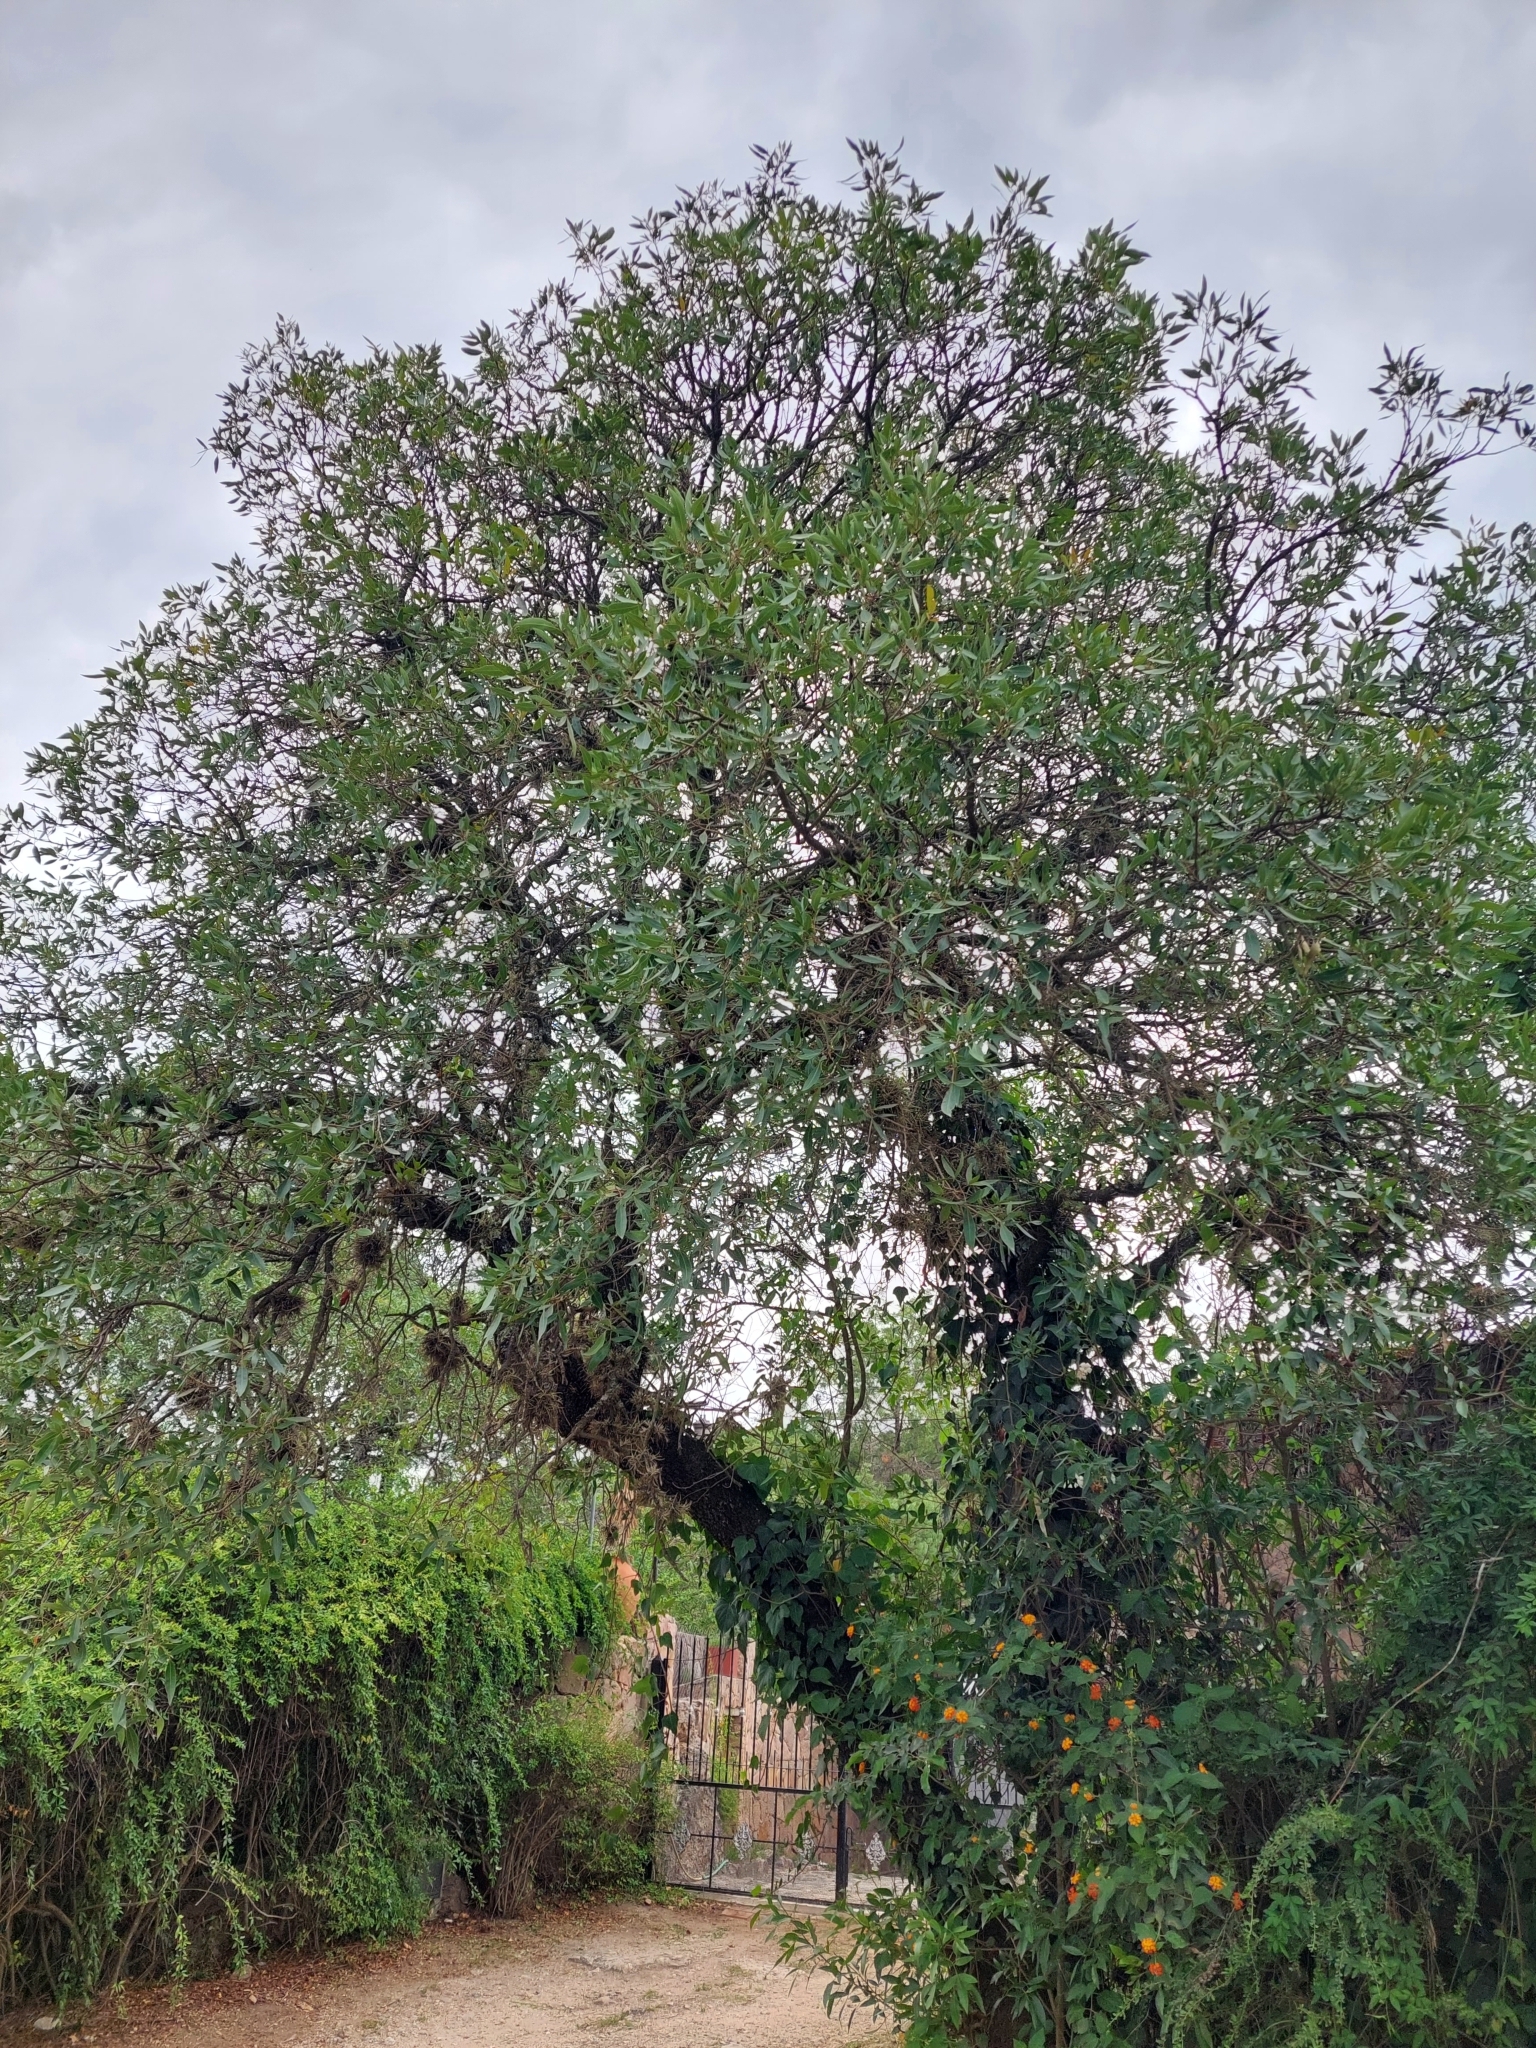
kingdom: Plantae
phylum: Tracheophyta
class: Magnoliopsida
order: Sapindales
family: Anacardiaceae
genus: Lithraea
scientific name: Lithraea molleoides
